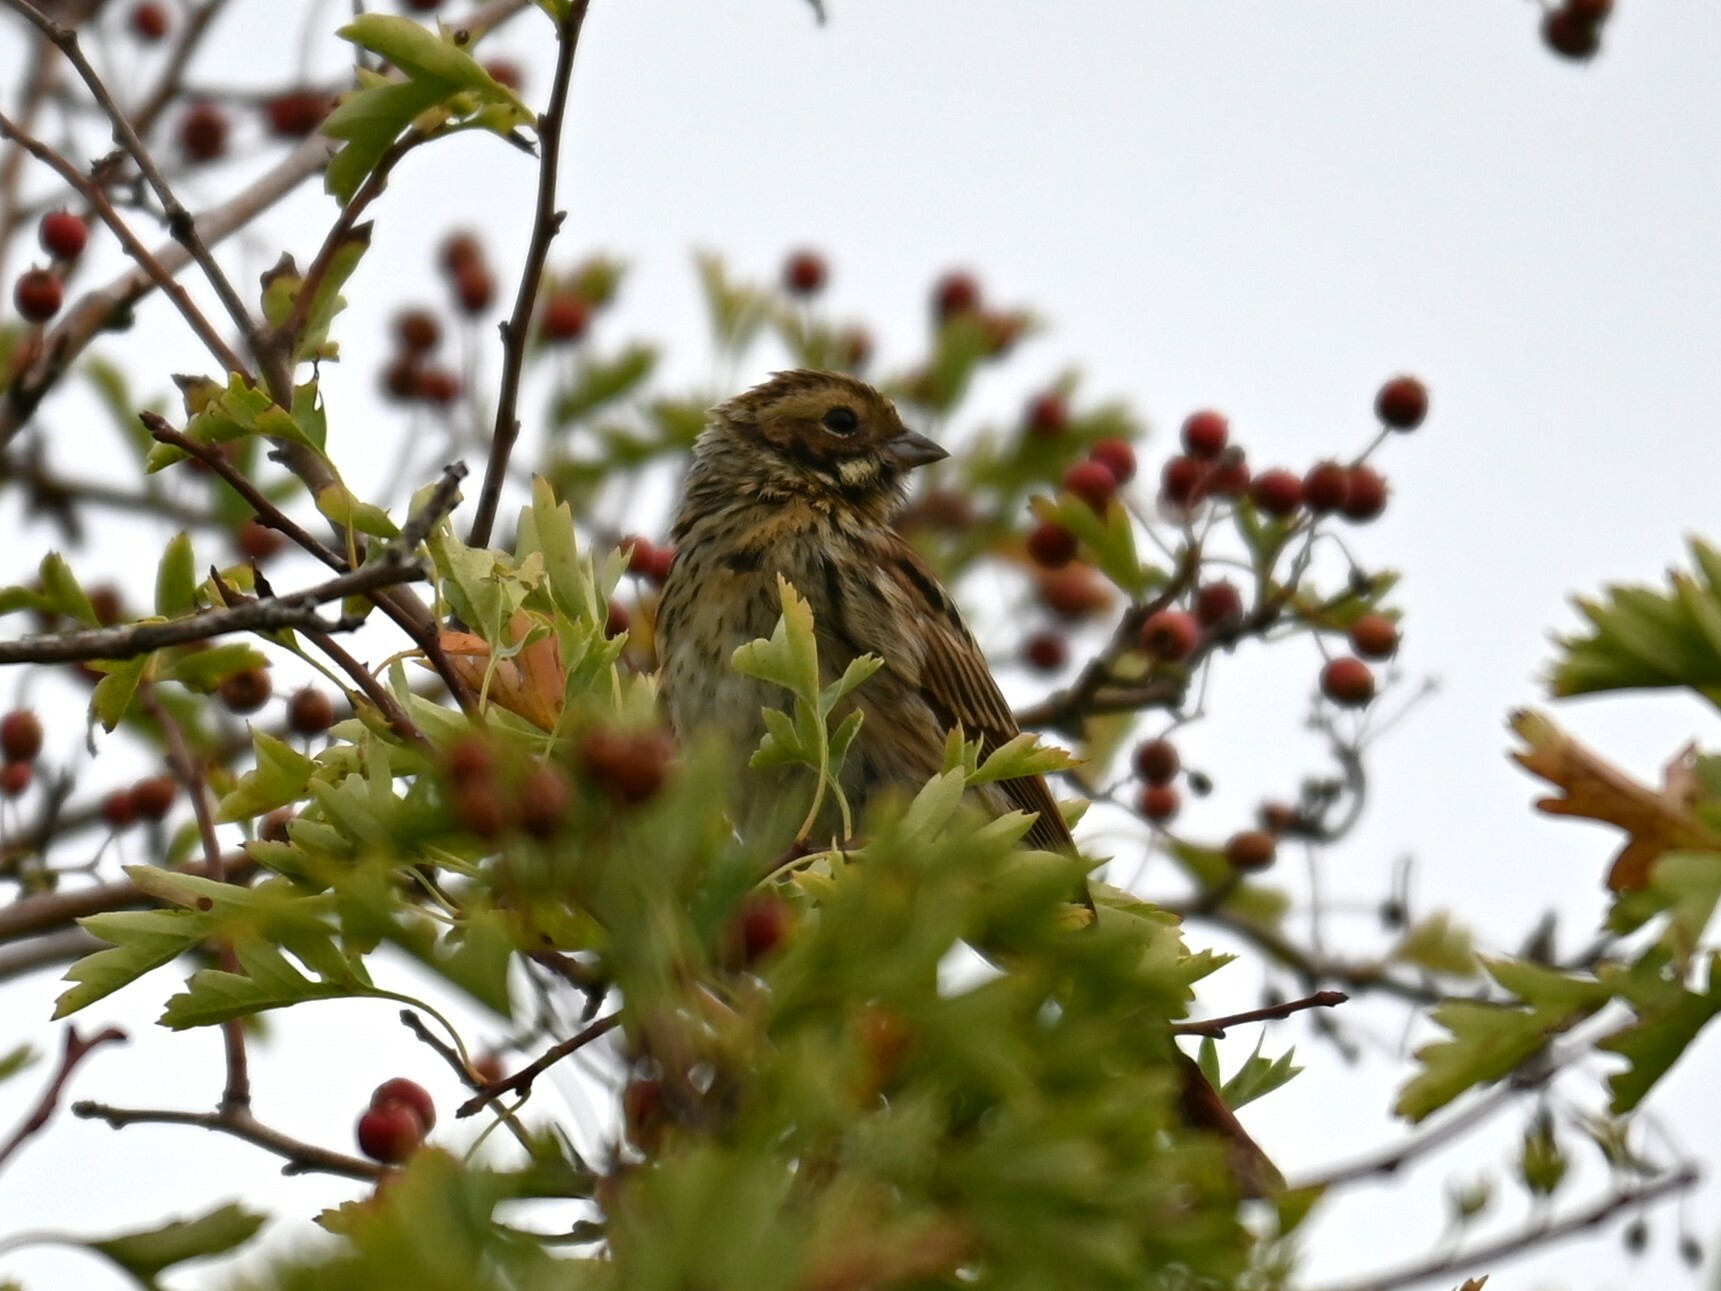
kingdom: Animalia
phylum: Chordata
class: Aves
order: Passeriformes
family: Emberizidae
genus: Emberiza
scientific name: Emberiza schoeniclus
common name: Reed bunting
